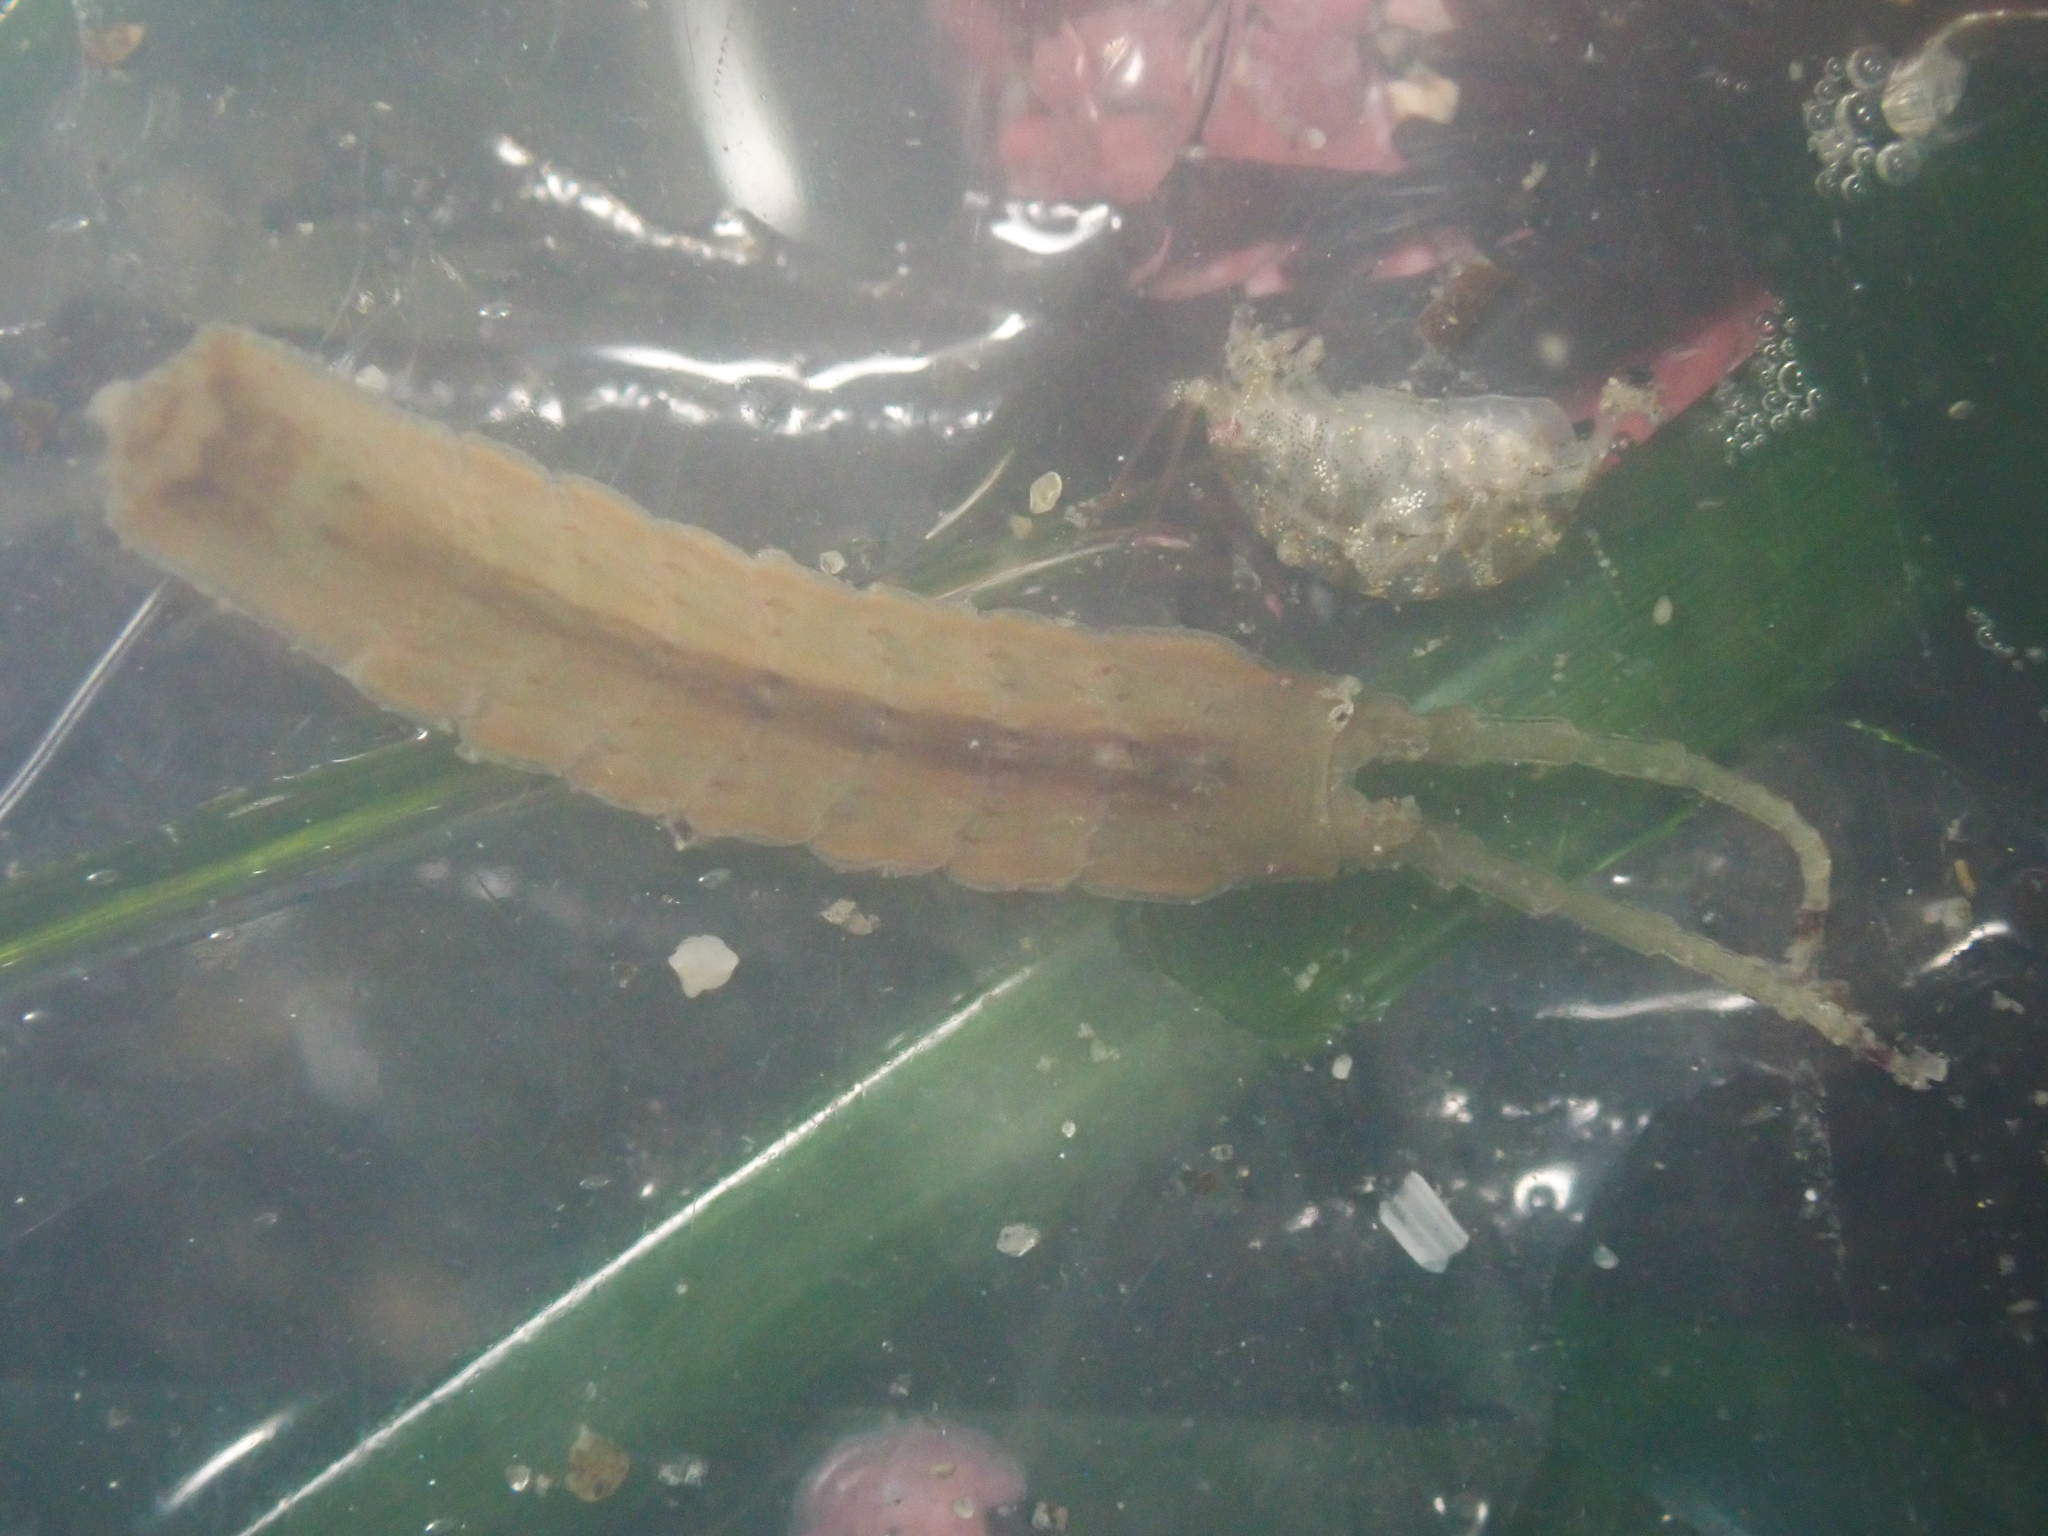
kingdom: Animalia
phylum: Arthropoda
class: Malacostraca
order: Isopoda
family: Idoteidae
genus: Idotea
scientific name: Idotea urotoma
